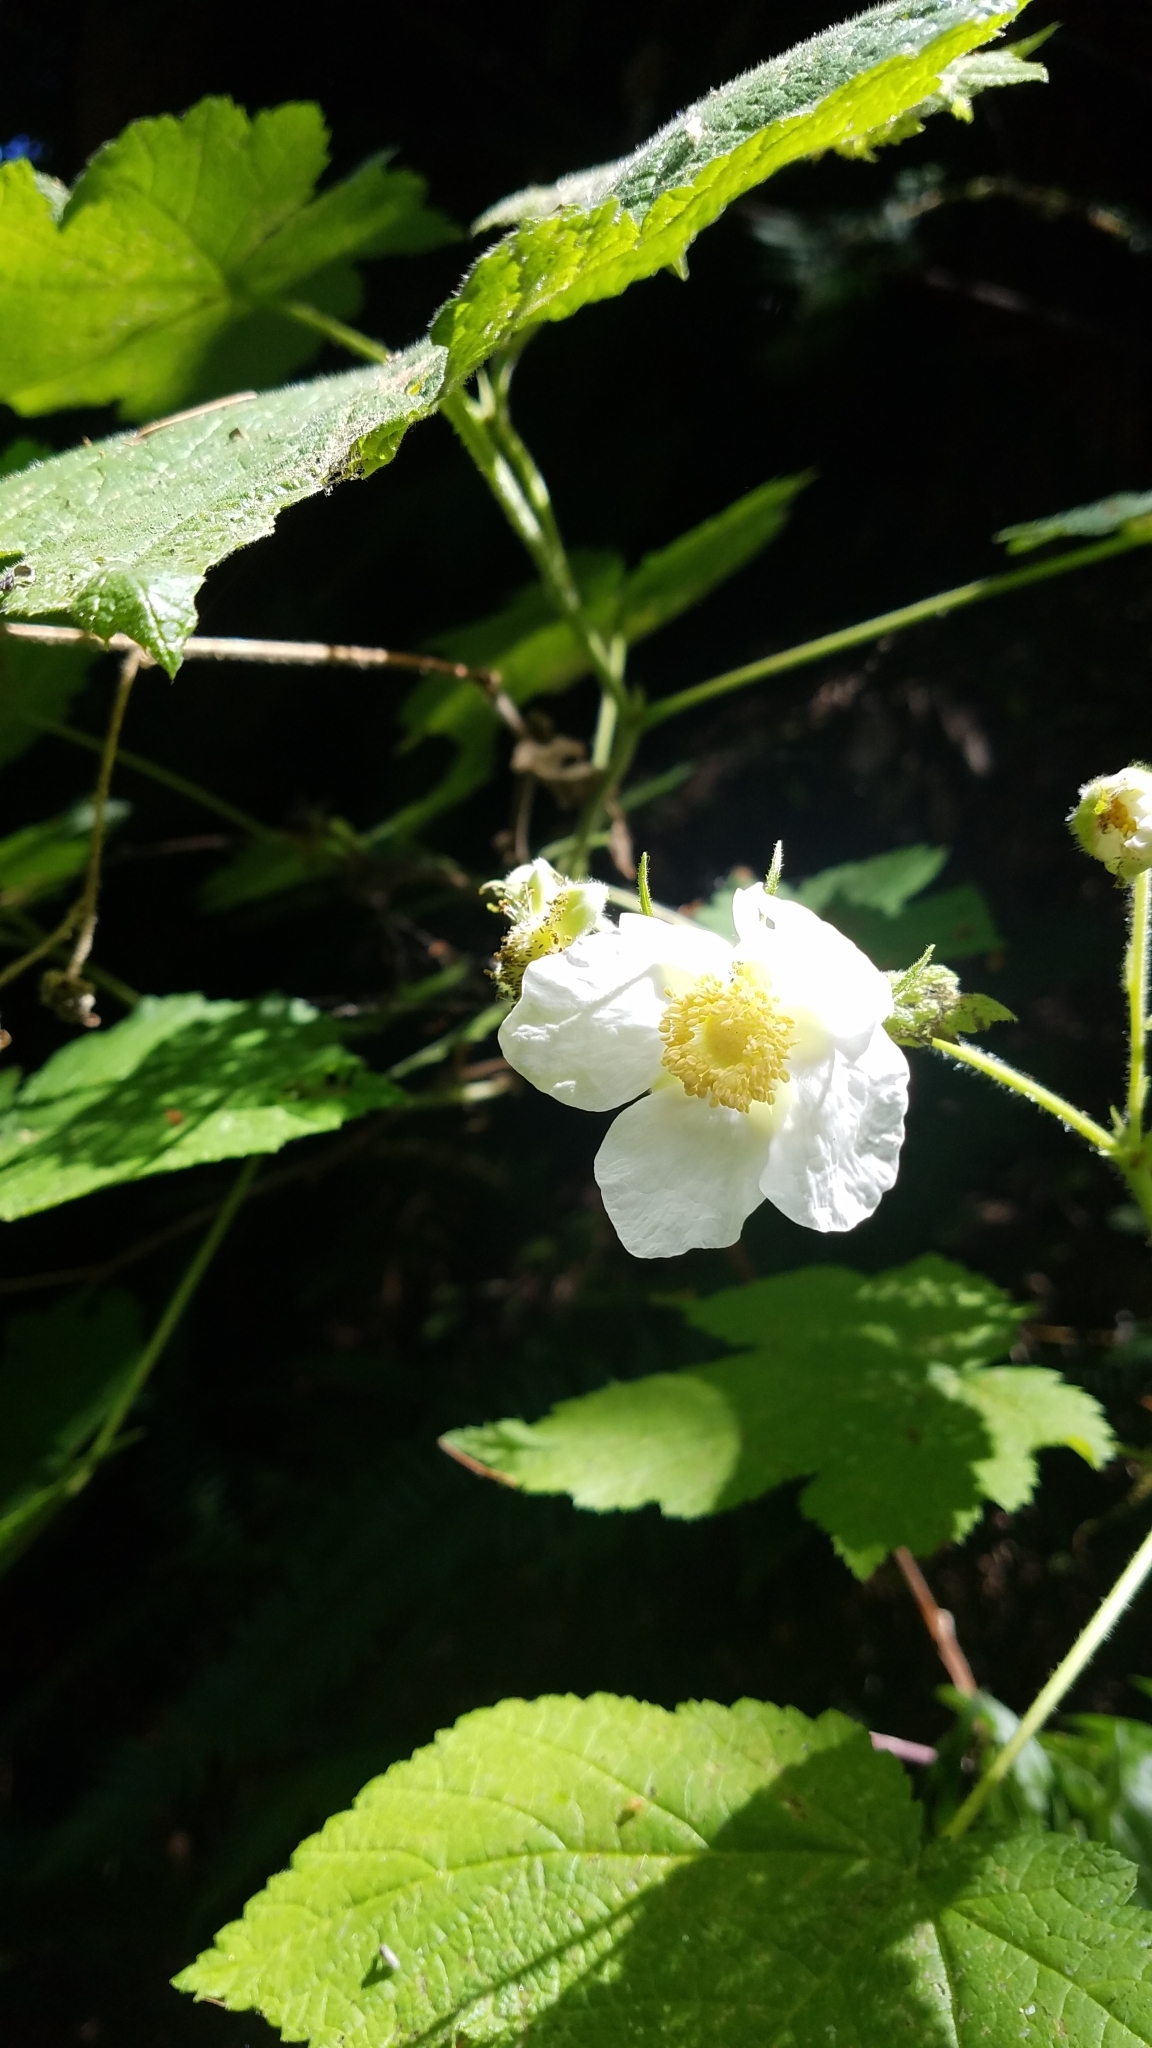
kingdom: Plantae
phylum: Tracheophyta
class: Magnoliopsida
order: Rosales
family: Rosaceae
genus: Rubus
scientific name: Rubus parviflorus
